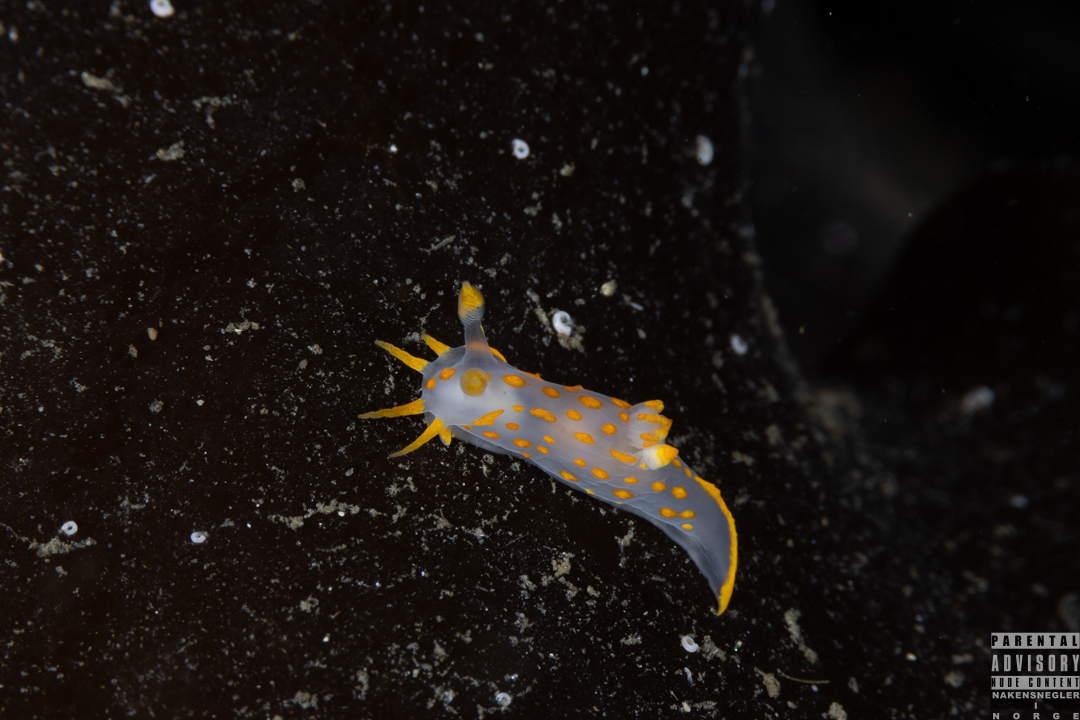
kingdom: Animalia
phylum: Mollusca
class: Gastropoda
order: Nudibranchia
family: Polyceridae
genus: Polycera
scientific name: Polycera quadrilineata
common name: Four-striped polycera
